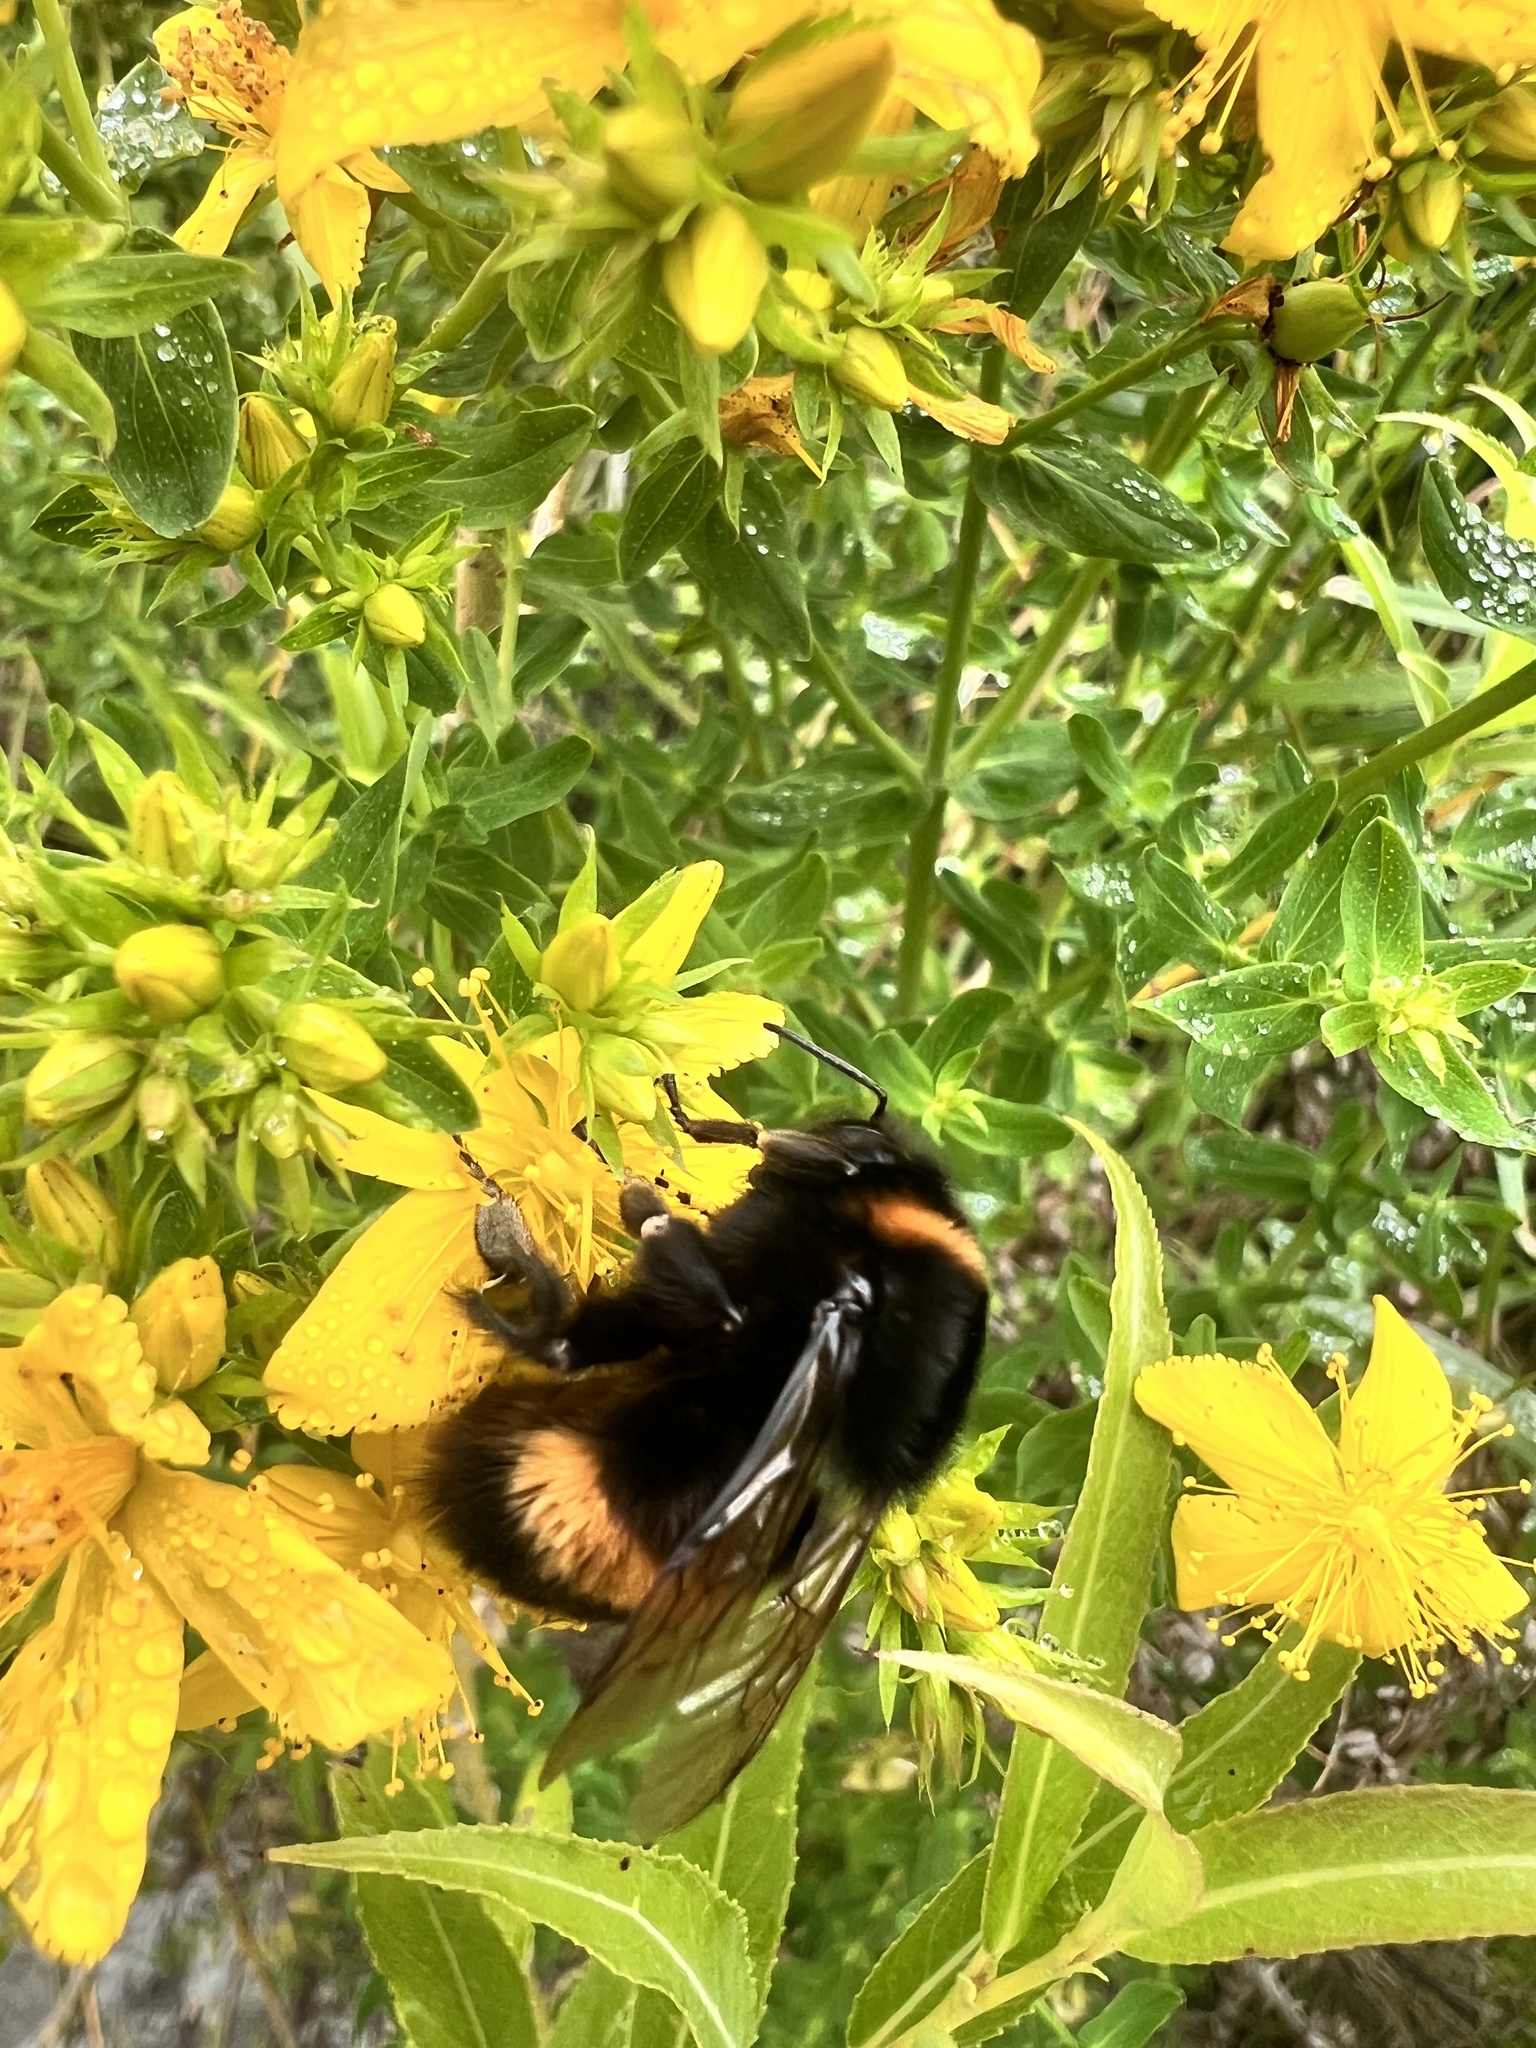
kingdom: Animalia
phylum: Arthropoda
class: Insecta
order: Hymenoptera
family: Apidae
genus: Bombus
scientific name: Bombus terrestris
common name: Buff-tailed bumblebee
